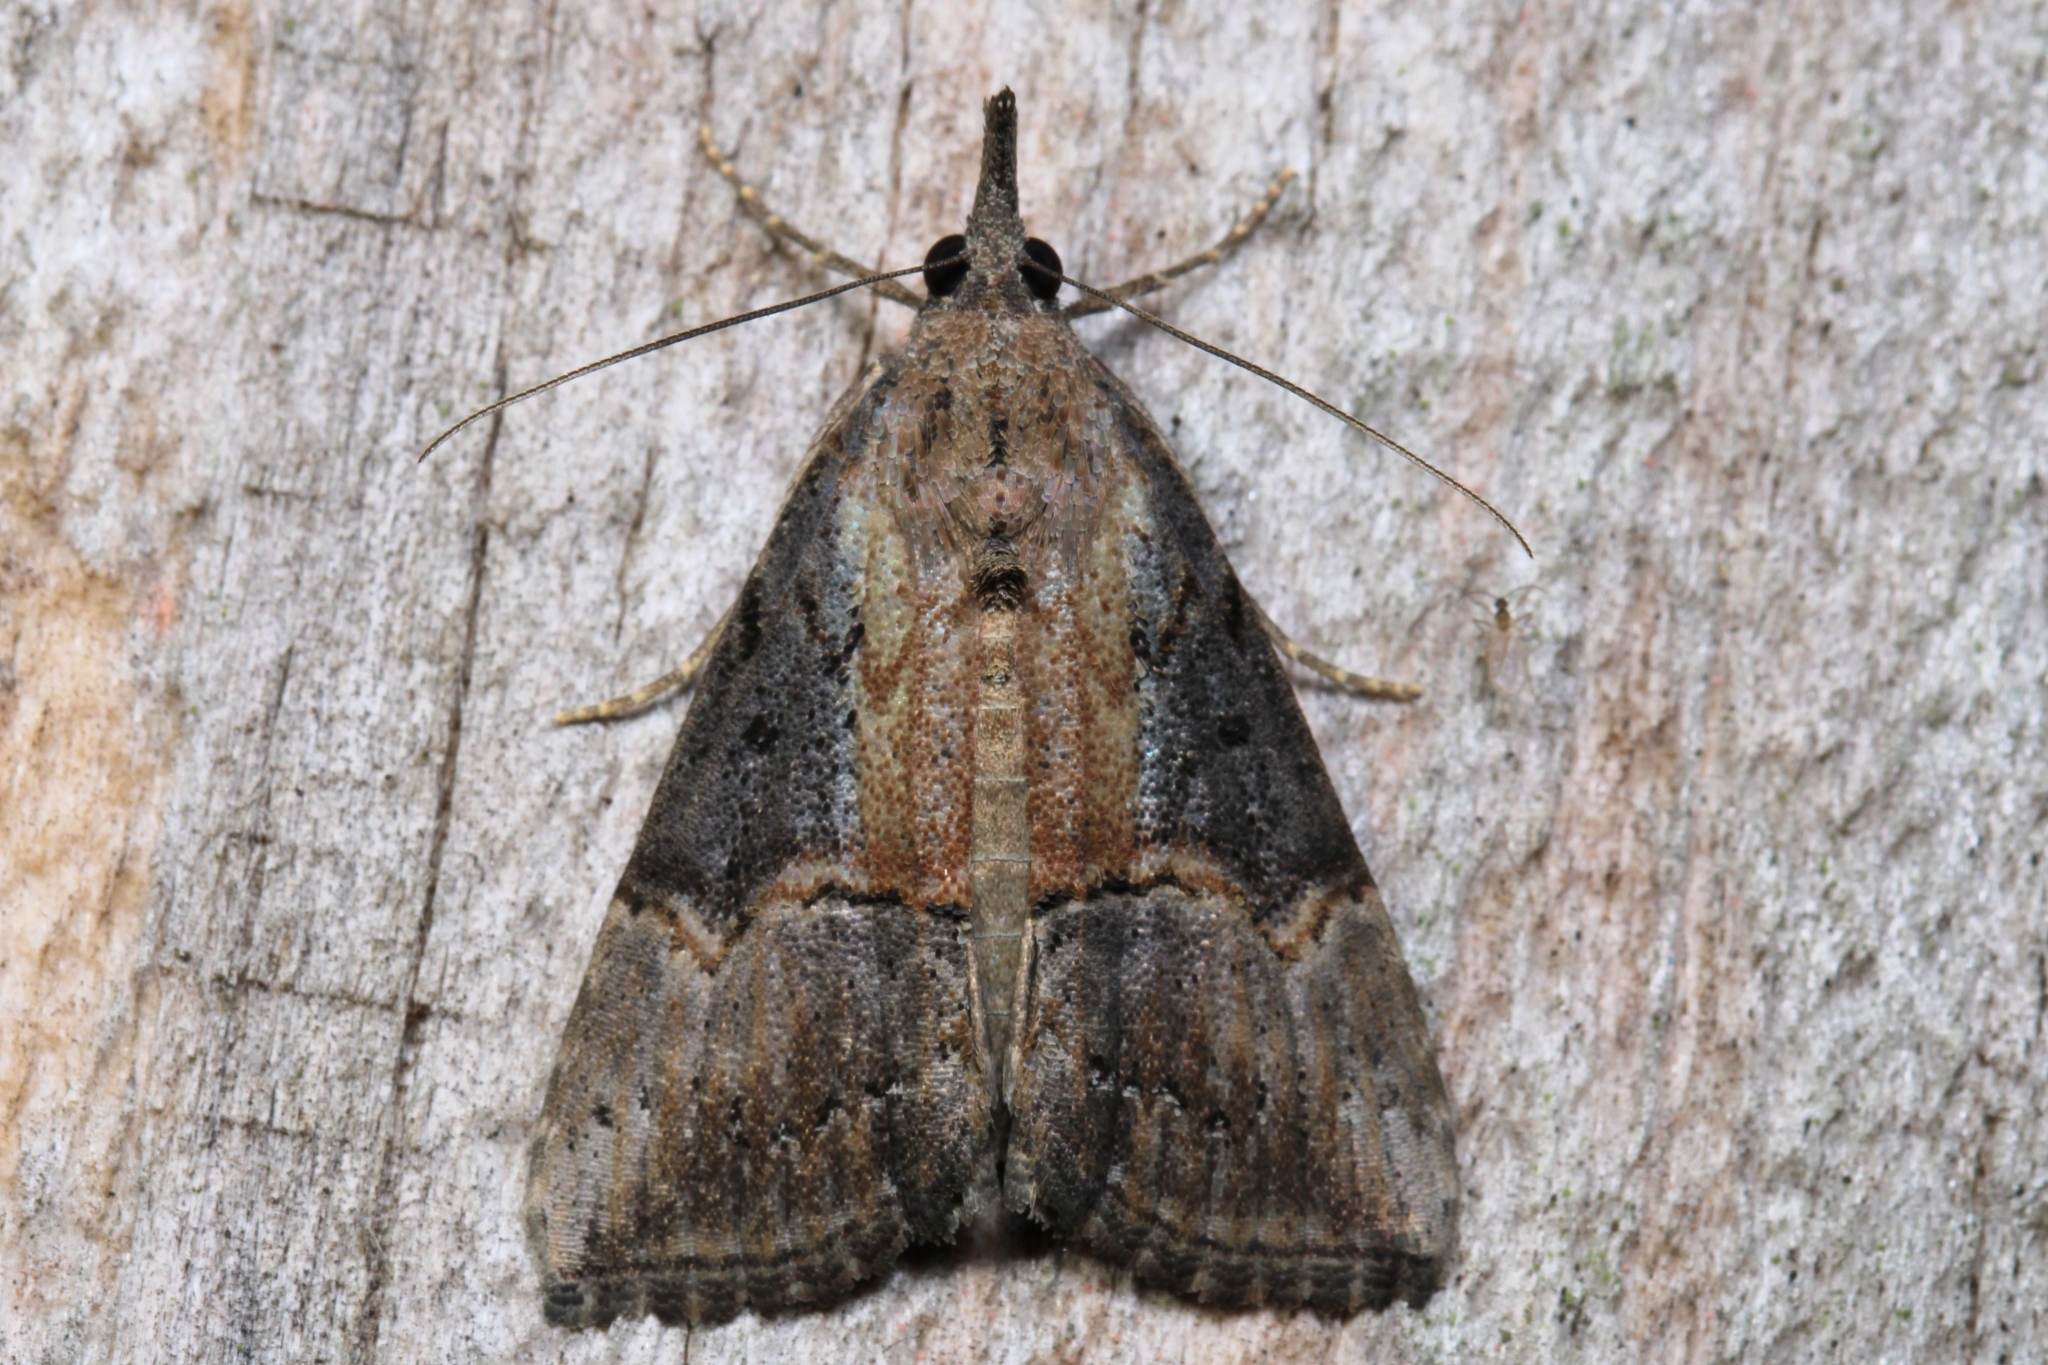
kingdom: Animalia
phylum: Arthropoda
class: Insecta
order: Lepidoptera
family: Erebidae
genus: Hypena
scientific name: Hypena scabra
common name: Green cloverworm
